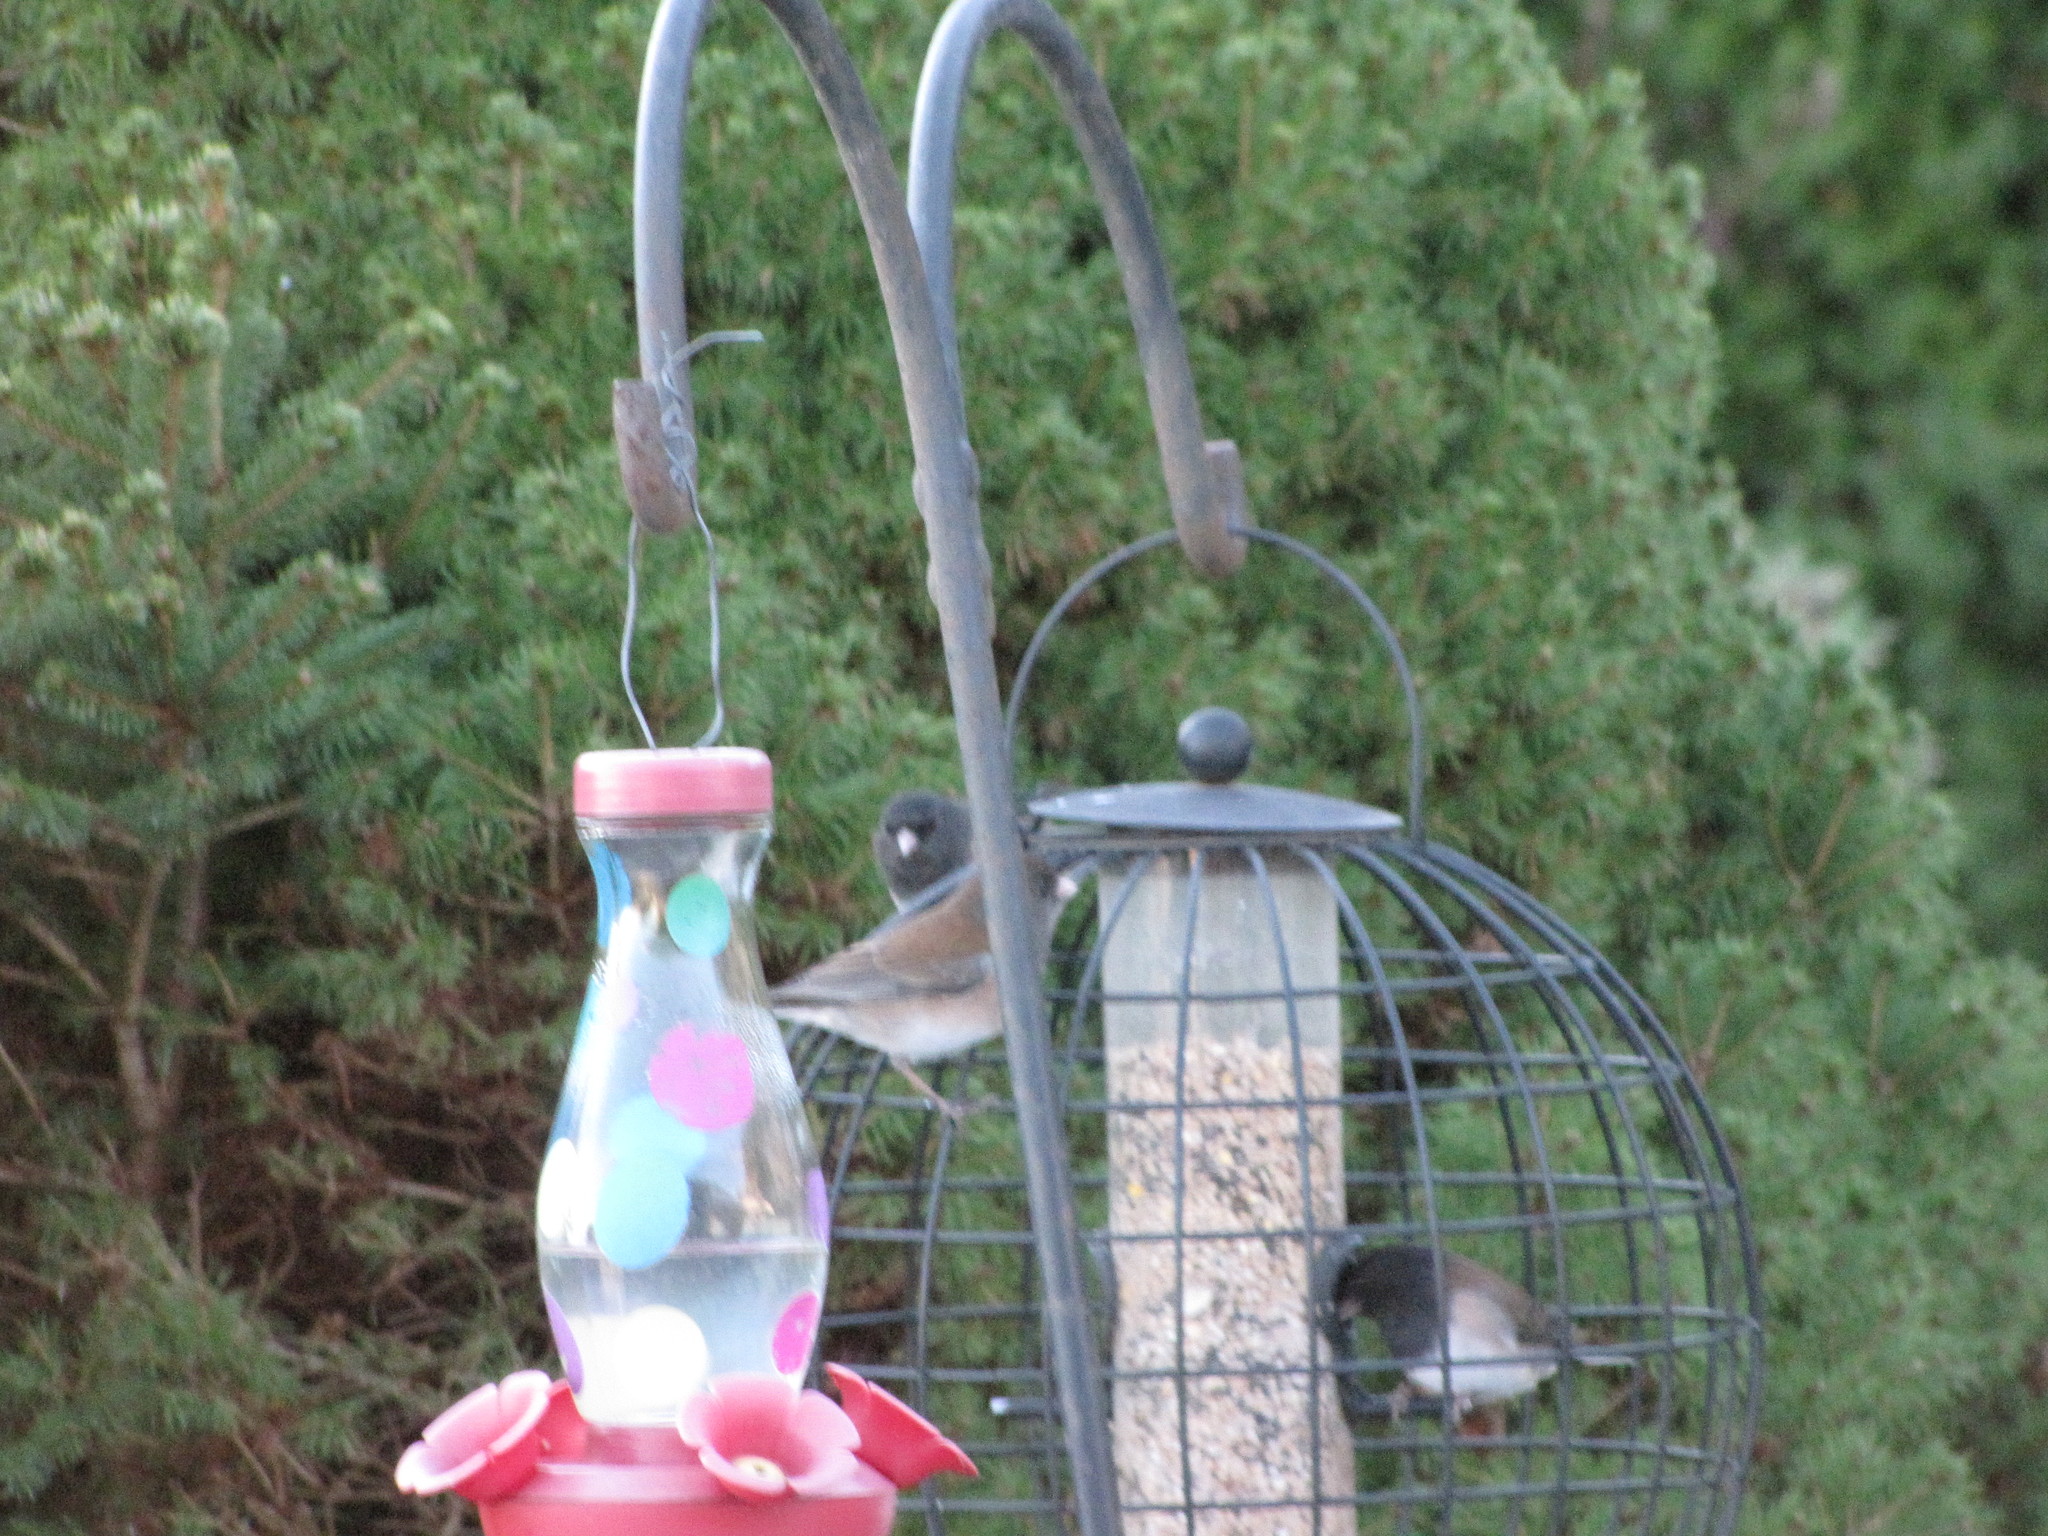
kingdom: Animalia
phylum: Chordata
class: Aves
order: Passeriformes
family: Passerellidae
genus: Junco
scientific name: Junco hyemalis
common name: Dark-eyed junco
